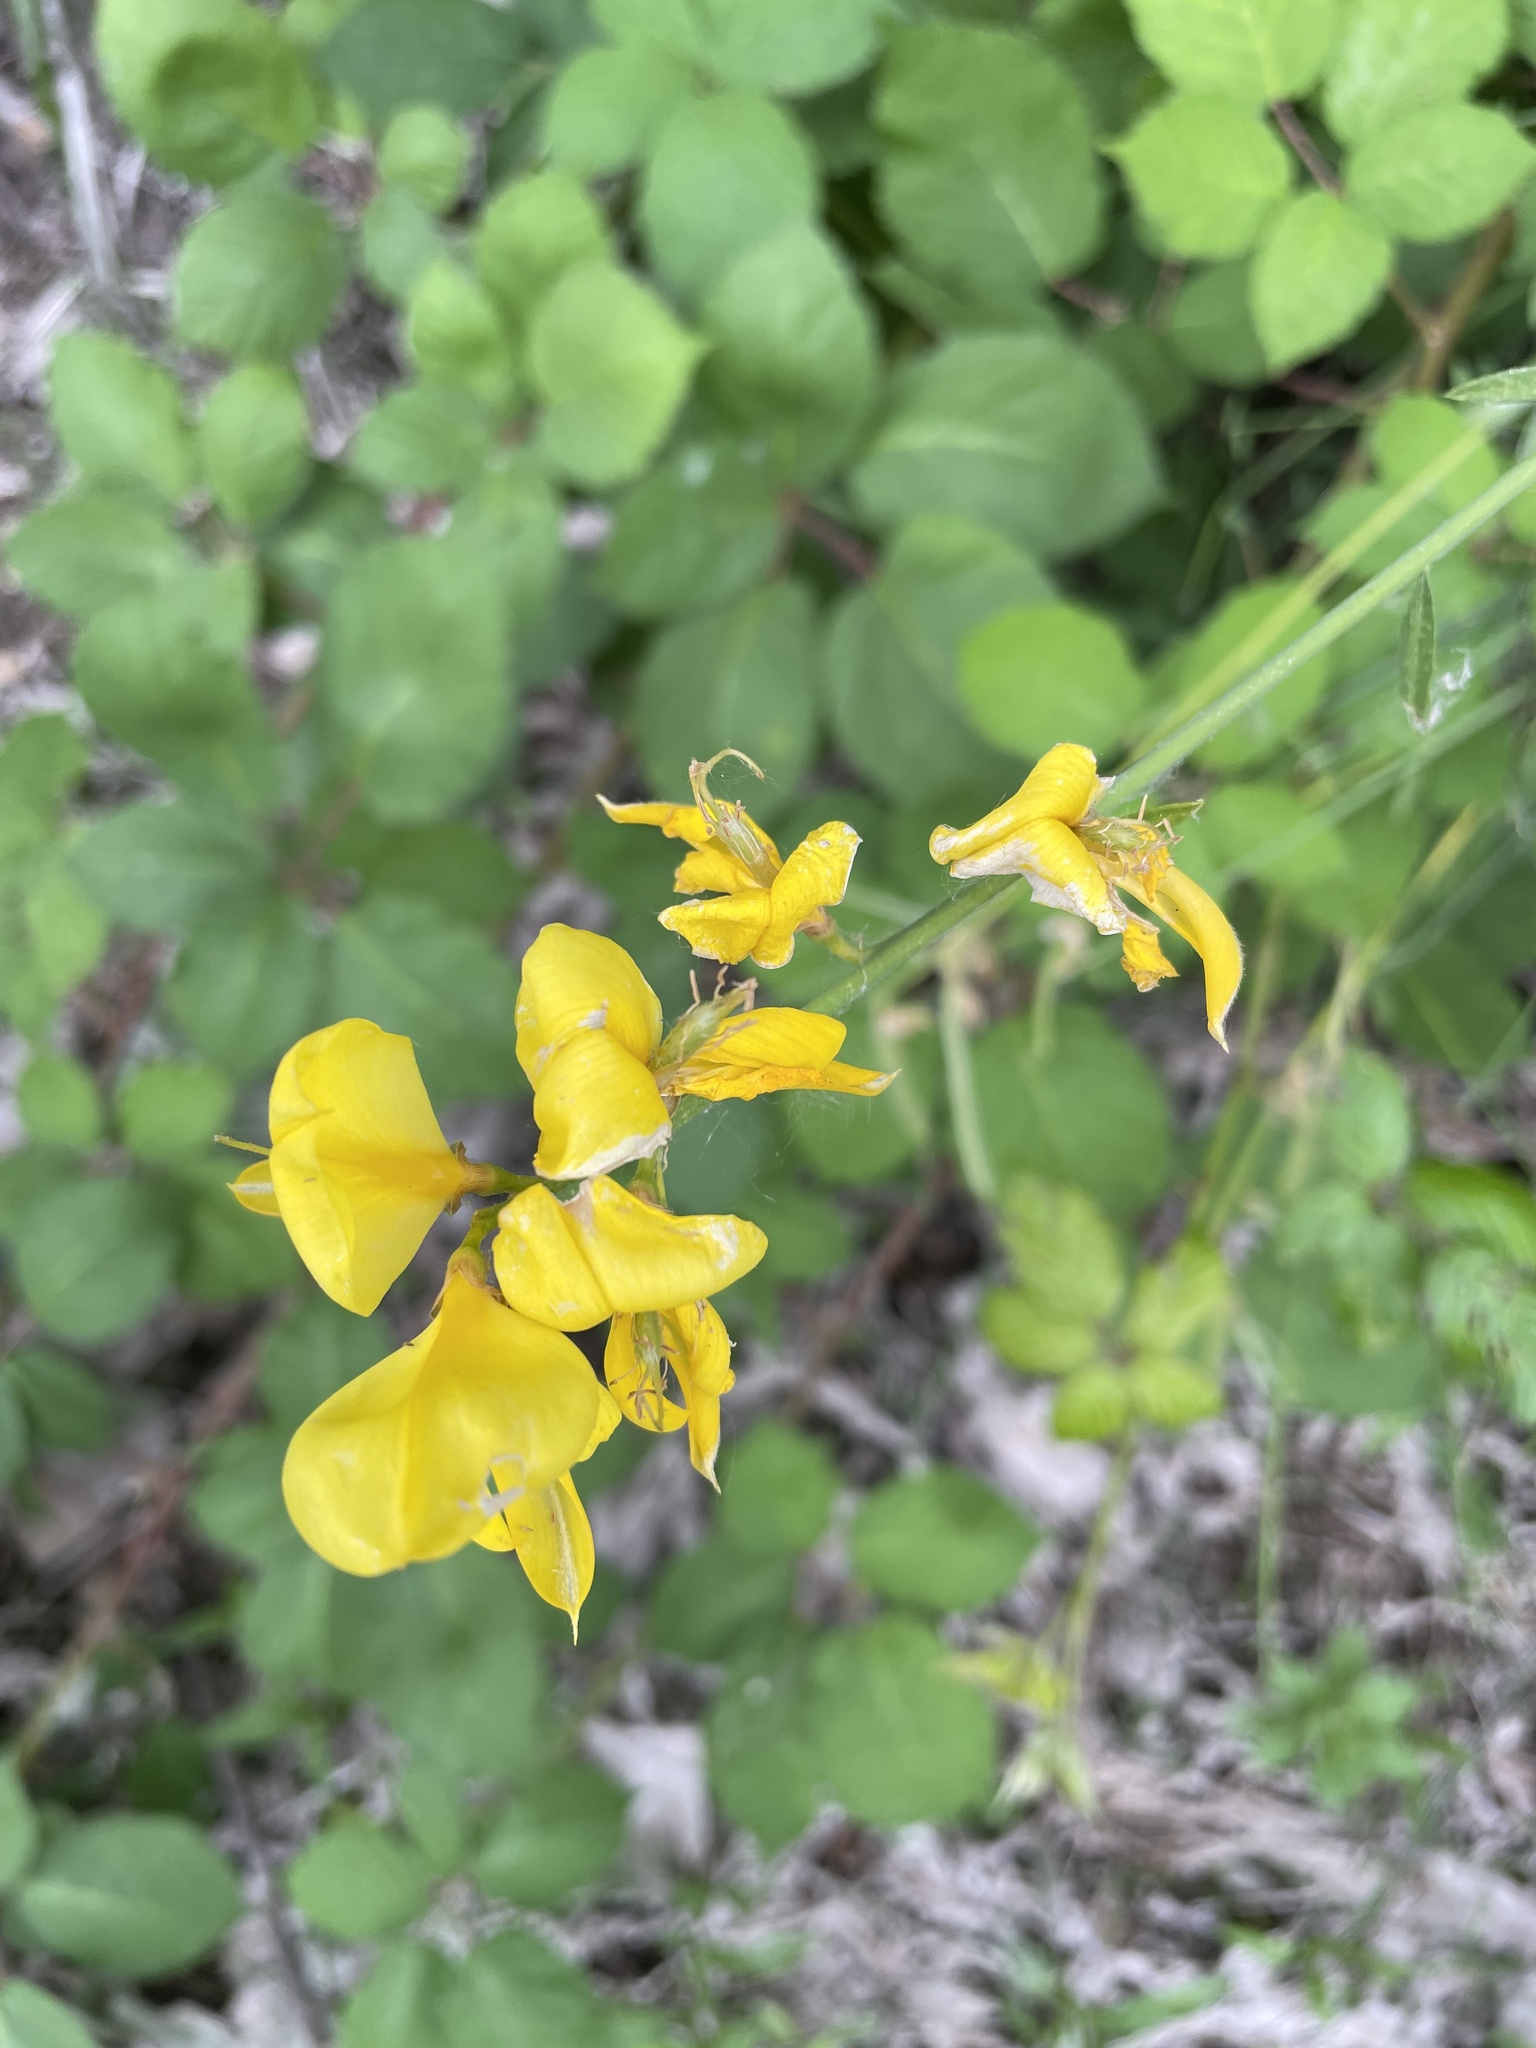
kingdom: Plantae
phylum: Tracheophyta
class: Magnoliopsida
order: Fabales
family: Fabaceae
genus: Spartium
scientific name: Spartium junceum
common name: Spanish broom
